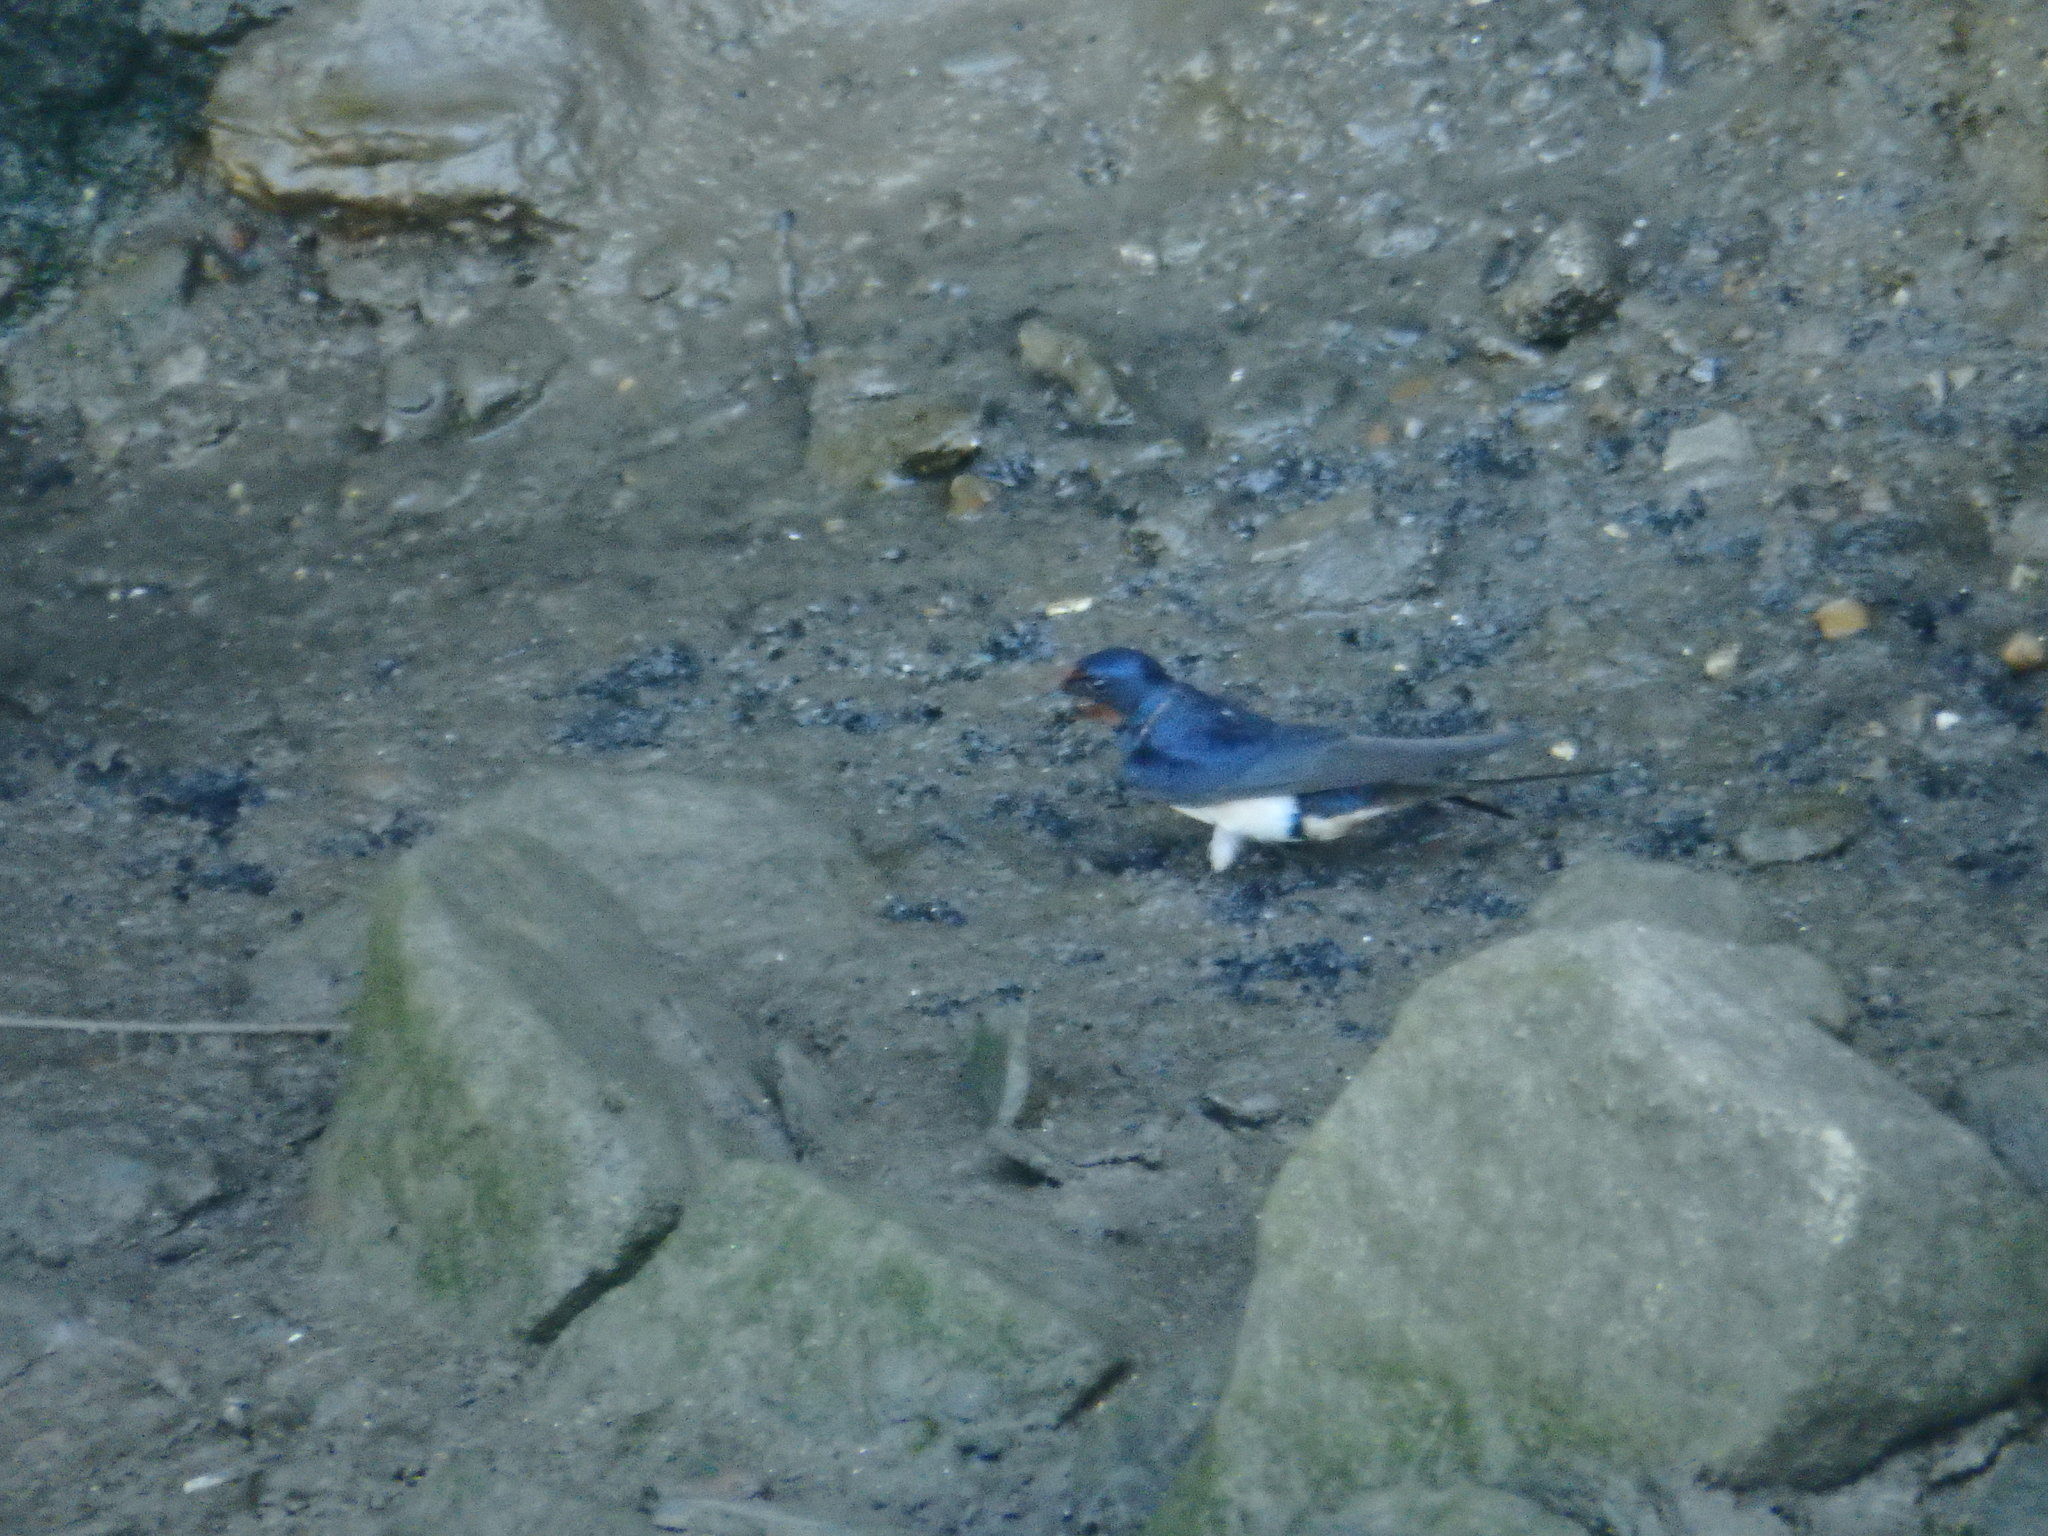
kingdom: Animalia
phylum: Chordata
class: Aves
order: Passeriformes
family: Hirundinidae
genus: Hirundo
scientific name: Hirundo rustica
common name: Barn swallow
